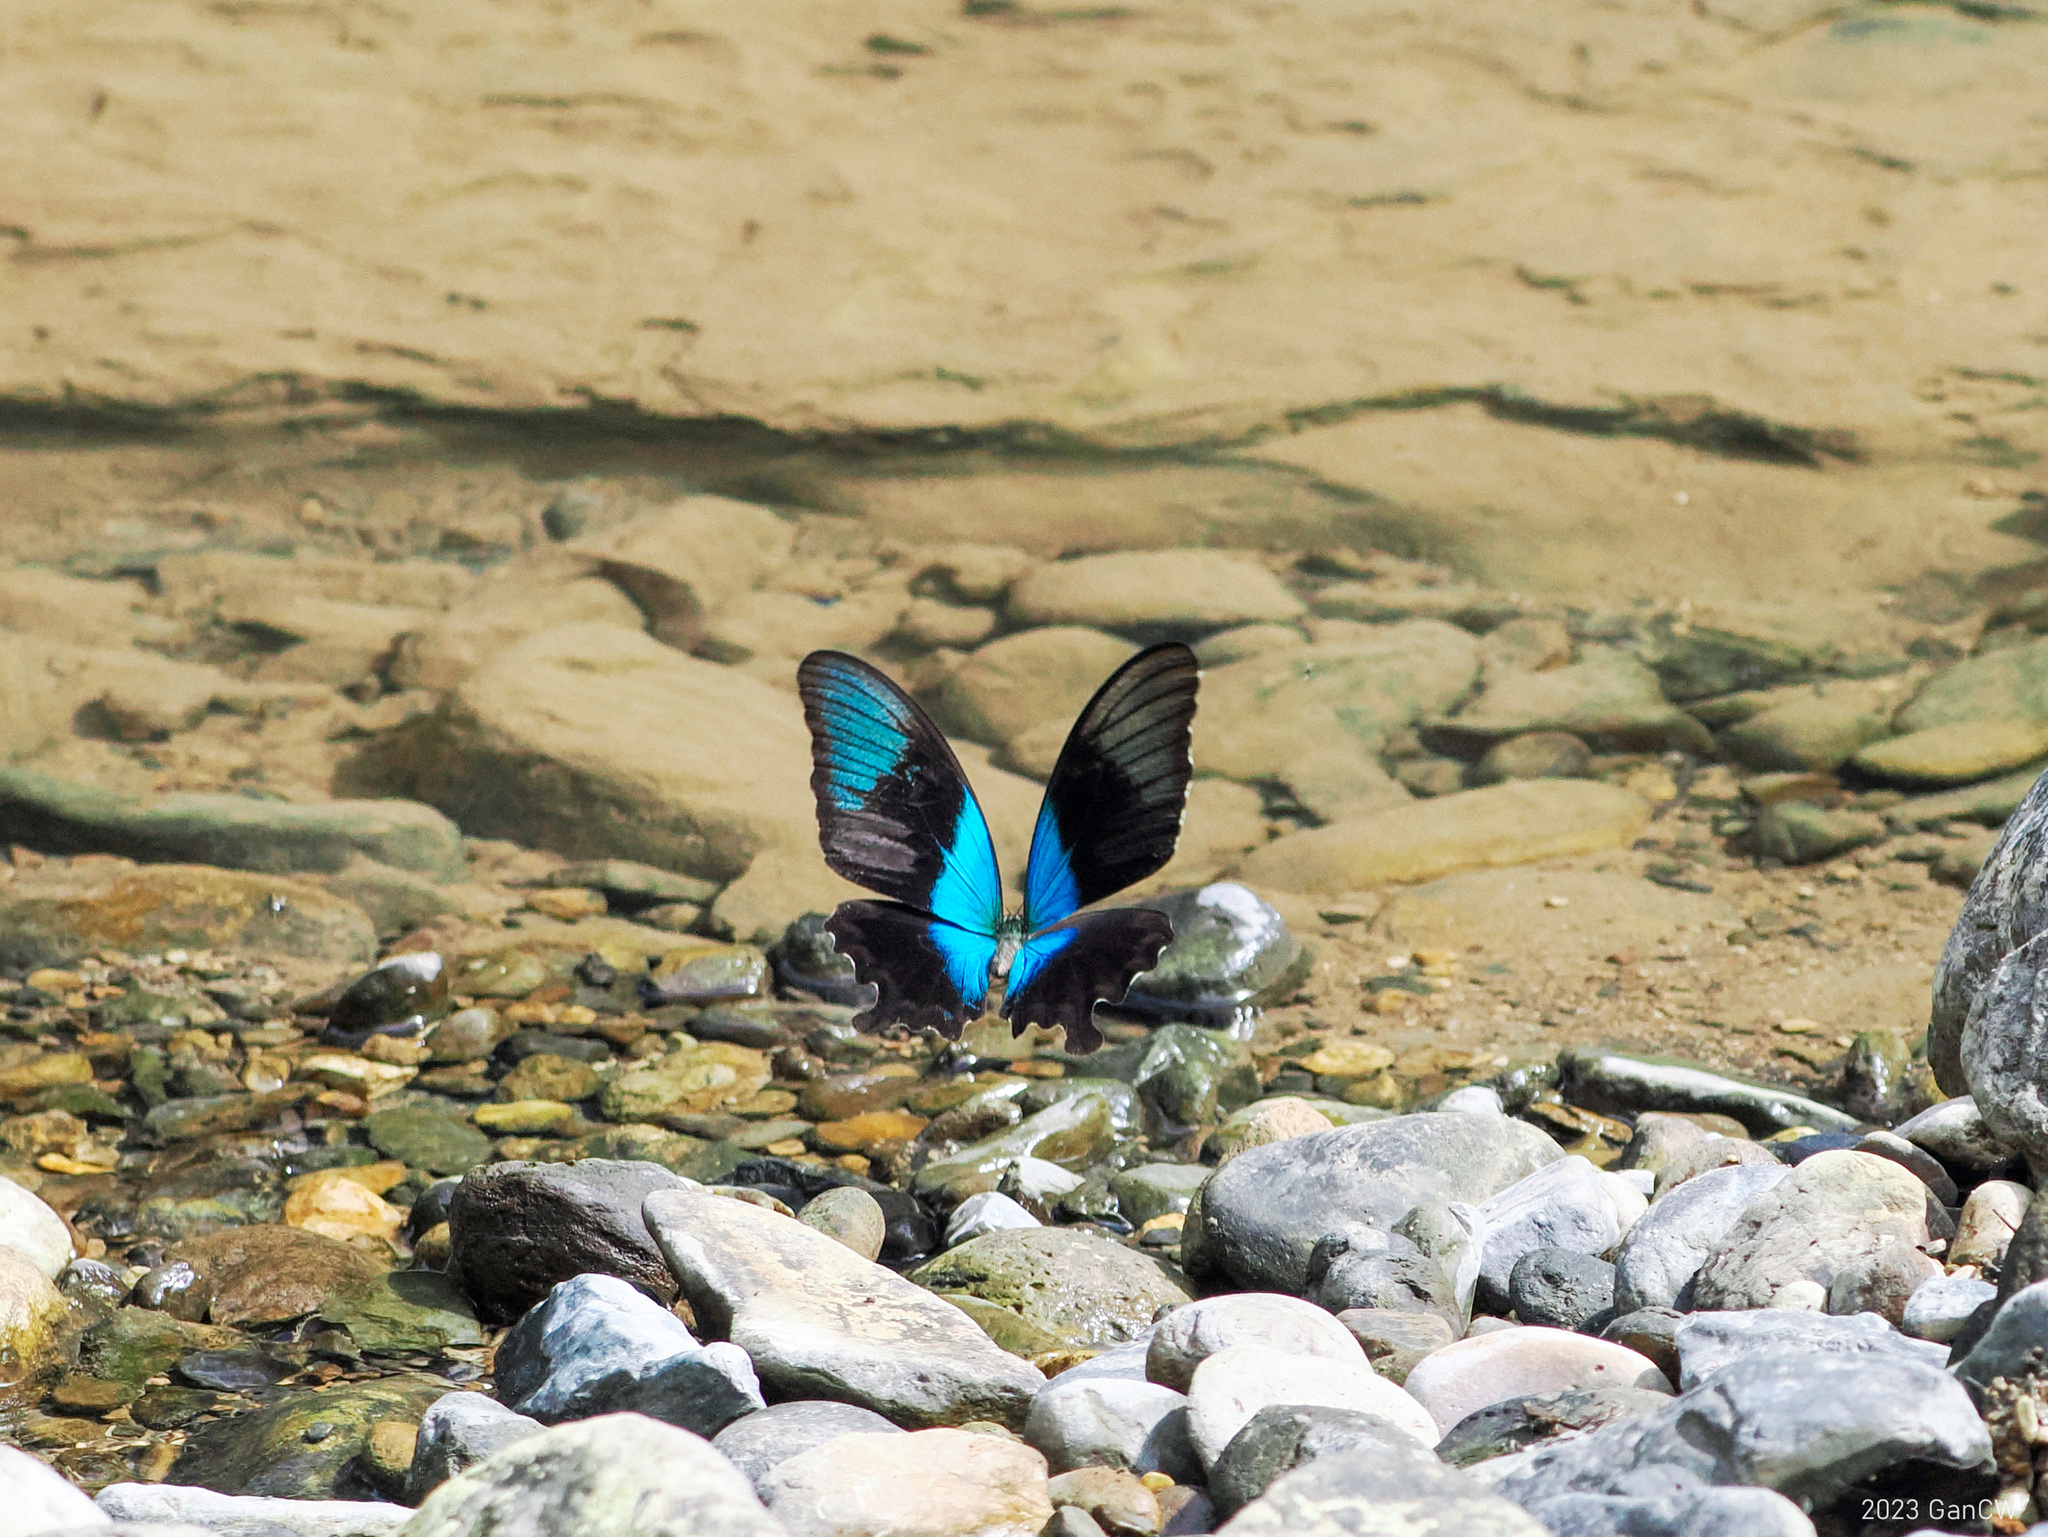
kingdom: Animalia
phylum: Arthropoda
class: Insecta
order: Lepidoptera
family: Papilionidae
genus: Papilio
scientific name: Papilio peranthus
